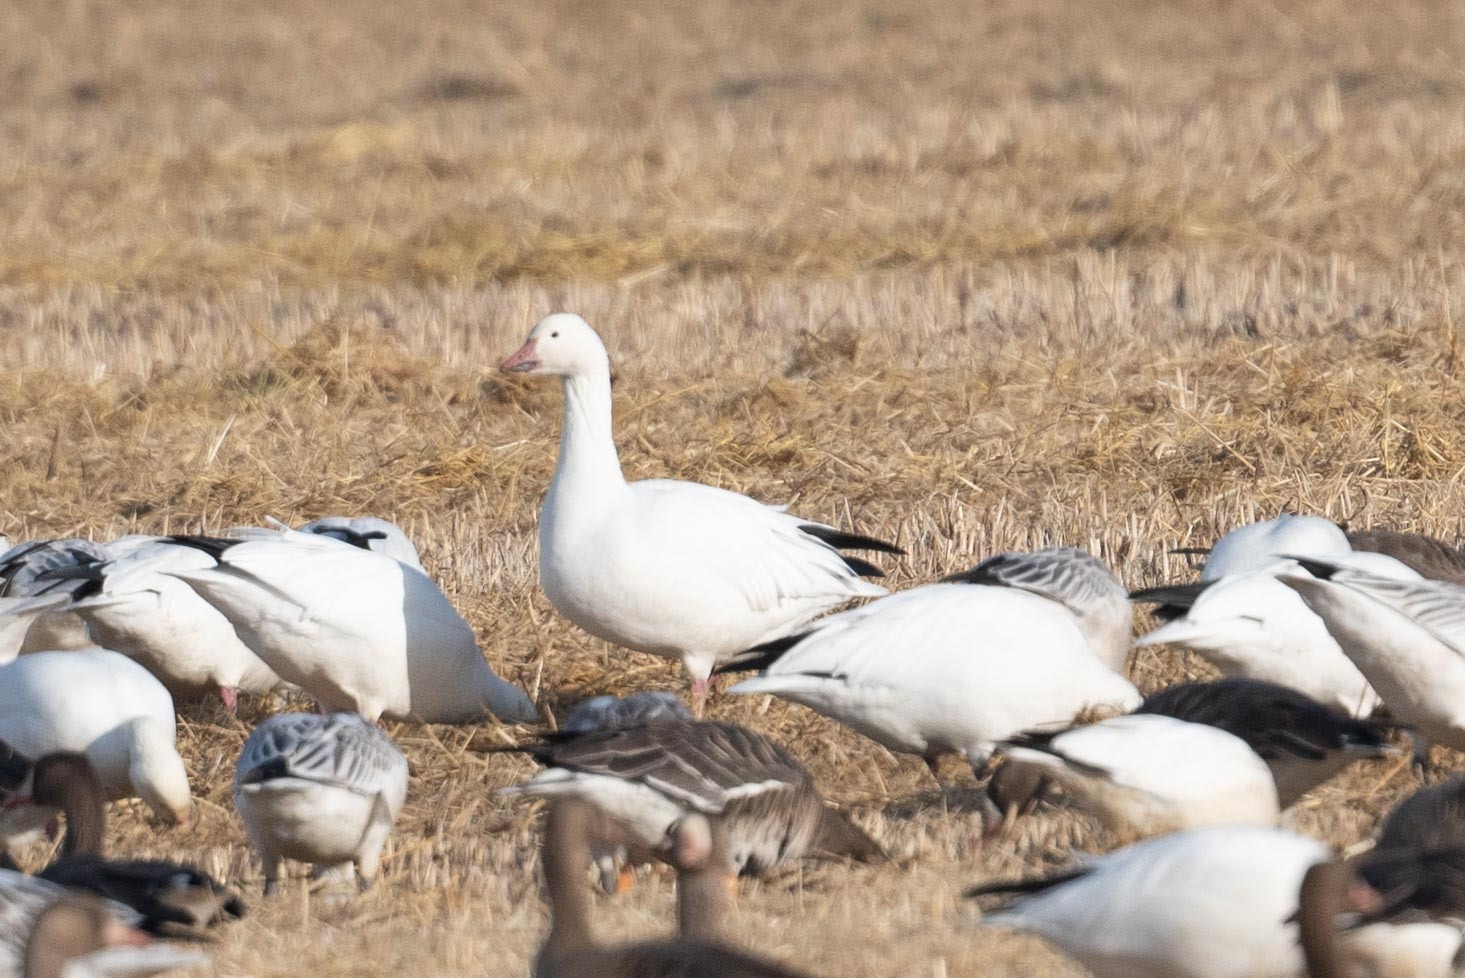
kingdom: Animalia
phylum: Chordata
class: Aves
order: Anseriformes
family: Anatidae
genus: Anser
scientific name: Anser caerulescens
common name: Snow goose
